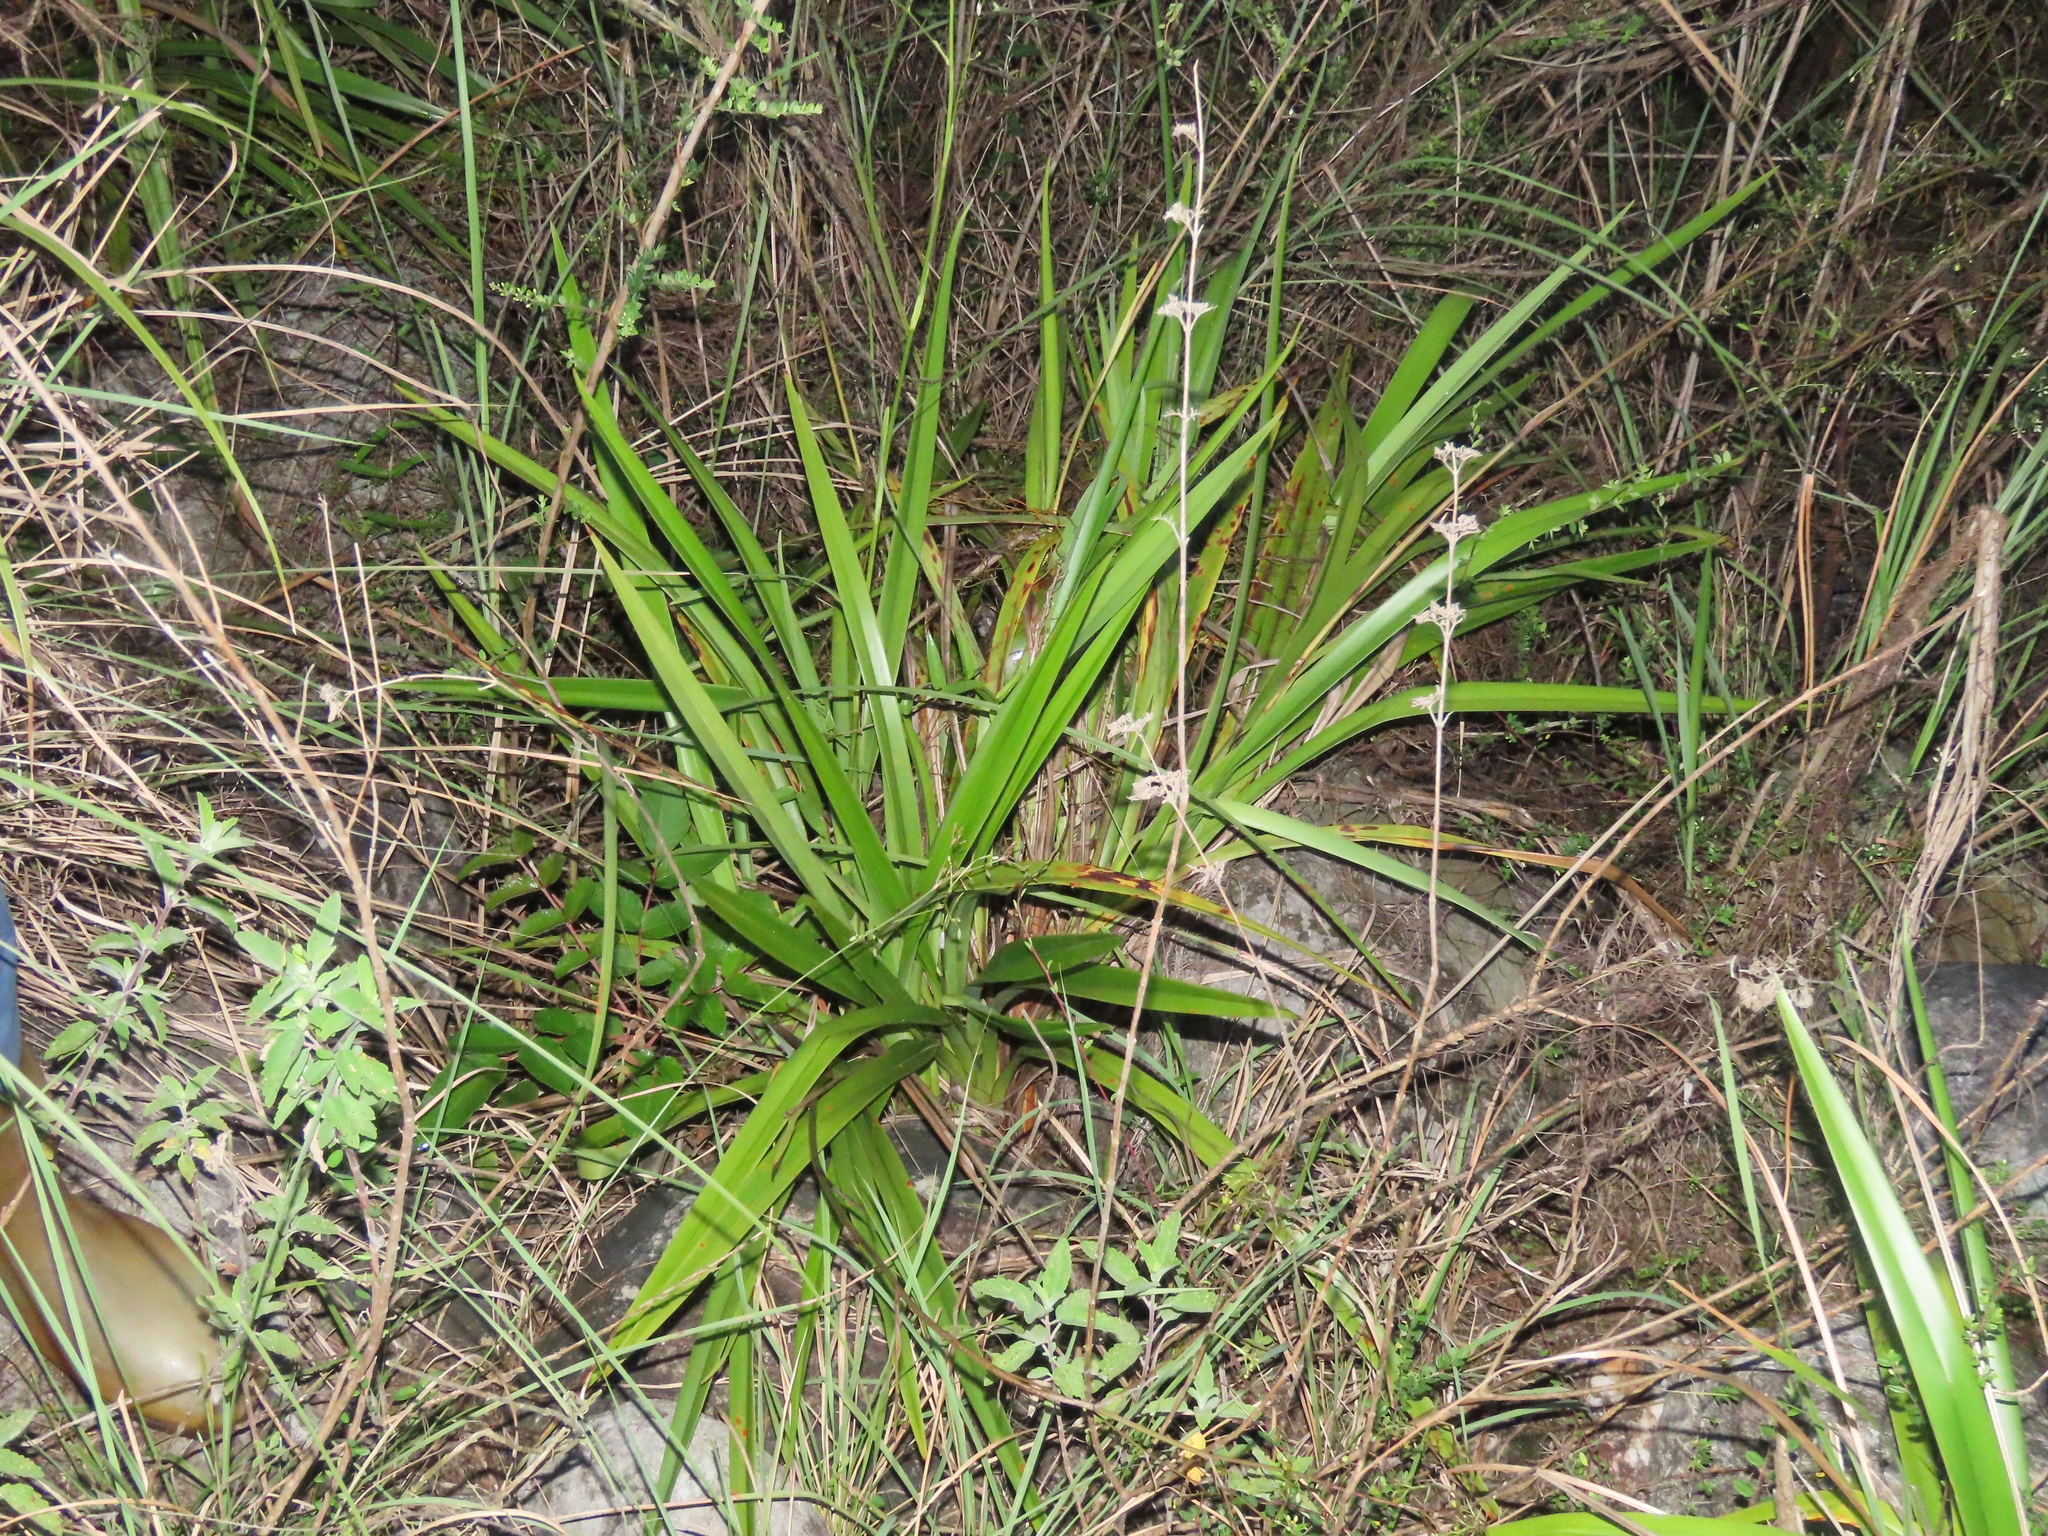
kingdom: Plantae
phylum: Tracheophyta
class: Liliopsida
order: Asparagales
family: Asphodelaceae
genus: Dianella
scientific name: Dianella ensifolia
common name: New zealand lilyplant
